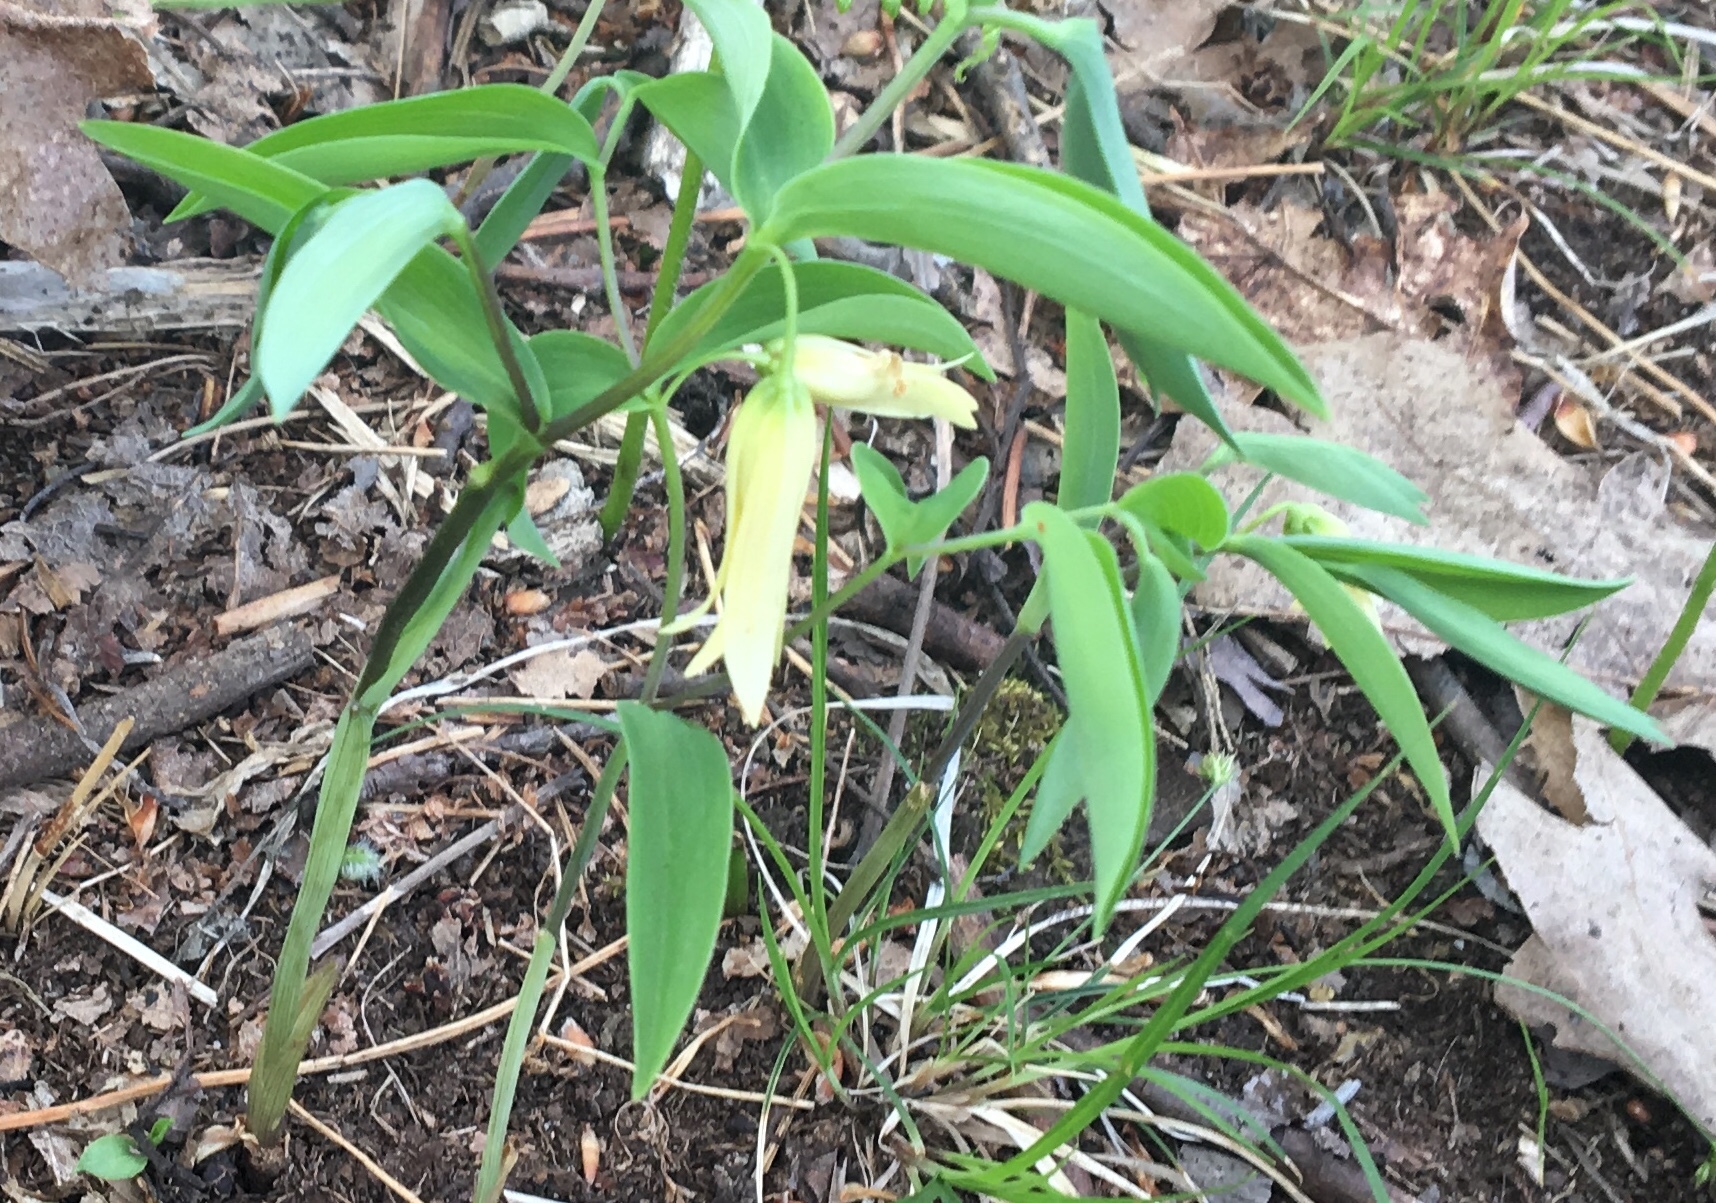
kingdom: Plantae
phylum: Tracheophyta
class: Liliopsida
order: Liliales
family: Colchicaceae
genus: Uvularia
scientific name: Uvularia sessilifolia
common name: Straw-lily
